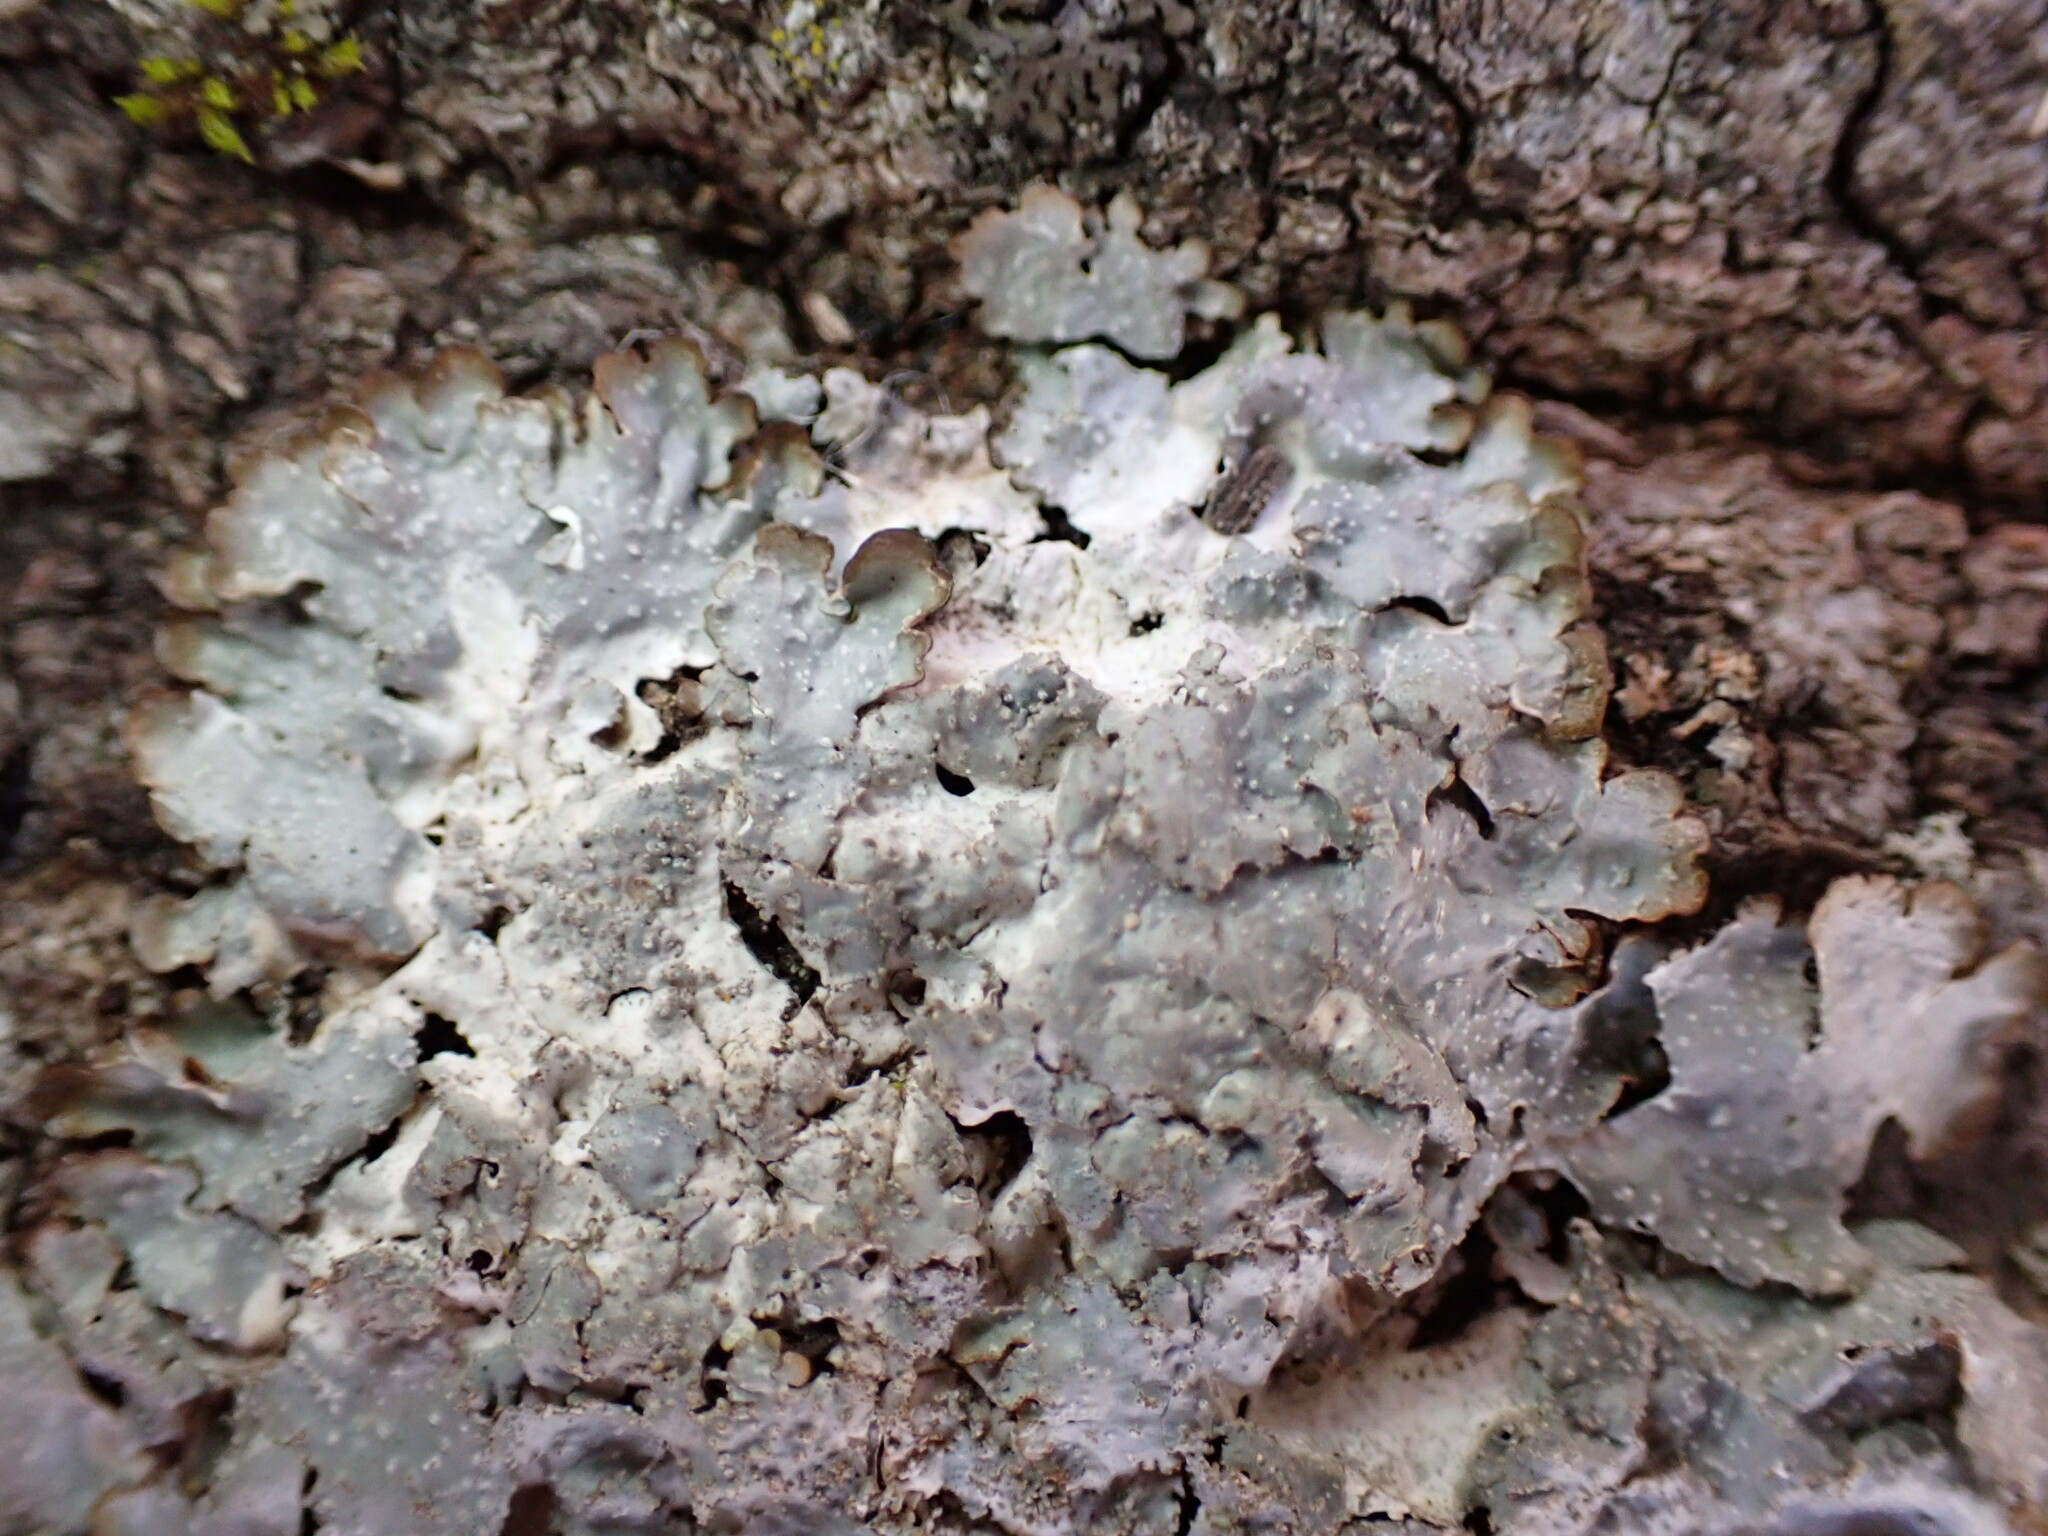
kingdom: Fungi
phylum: Ascomycota
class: Lecanoromycetes
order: Lecanorales
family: Parmeliaceae
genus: Punctelia
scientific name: Punctelia rudecta
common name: Rough speckled shield lichen
